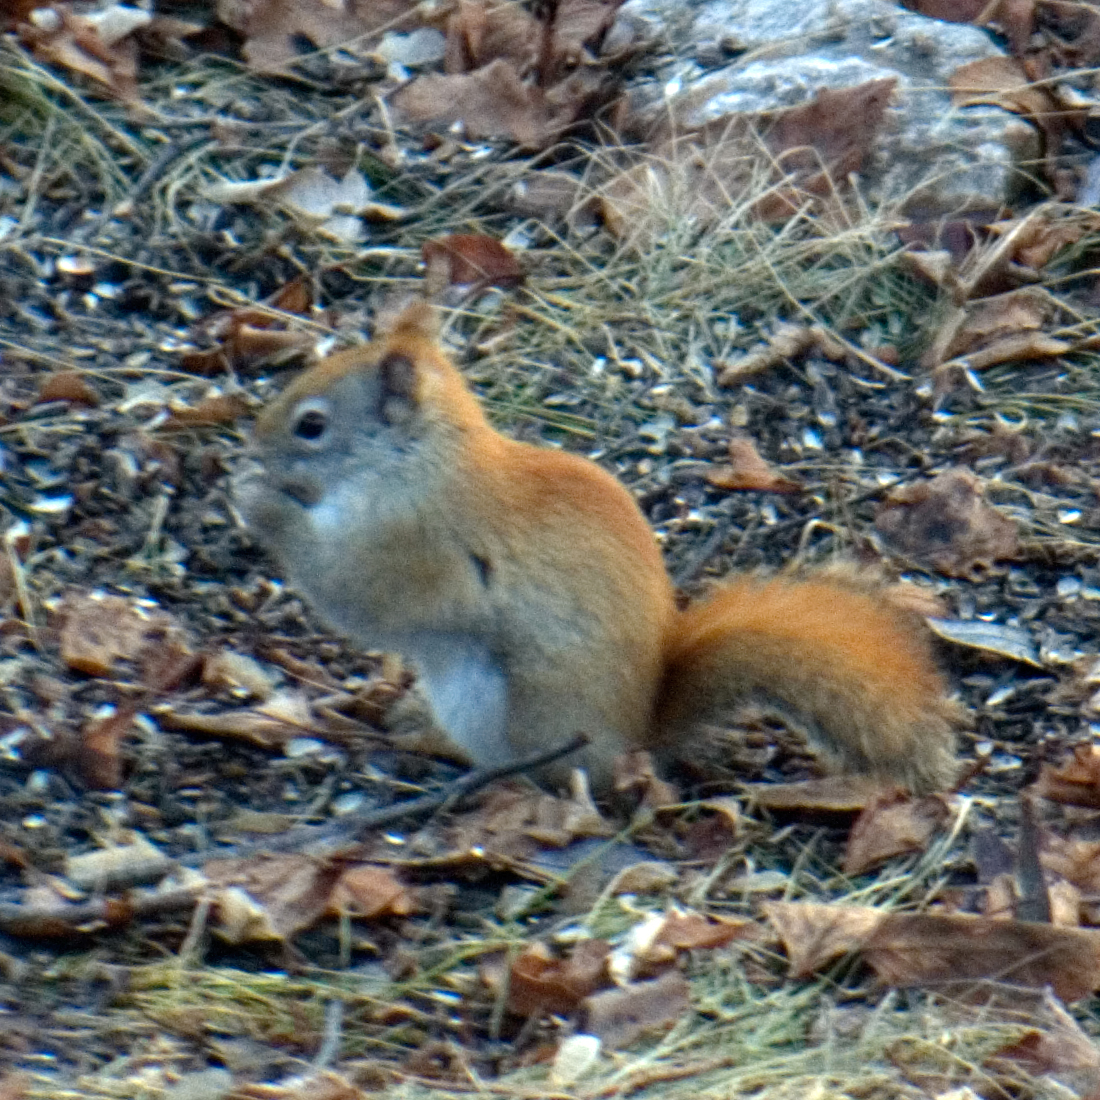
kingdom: Animalia
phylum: Chordata
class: Mammalia
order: Rodentia
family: Sciuridae
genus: Tamiasciurus
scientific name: Tamiasciurus hudsonicus
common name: Red squirrel
